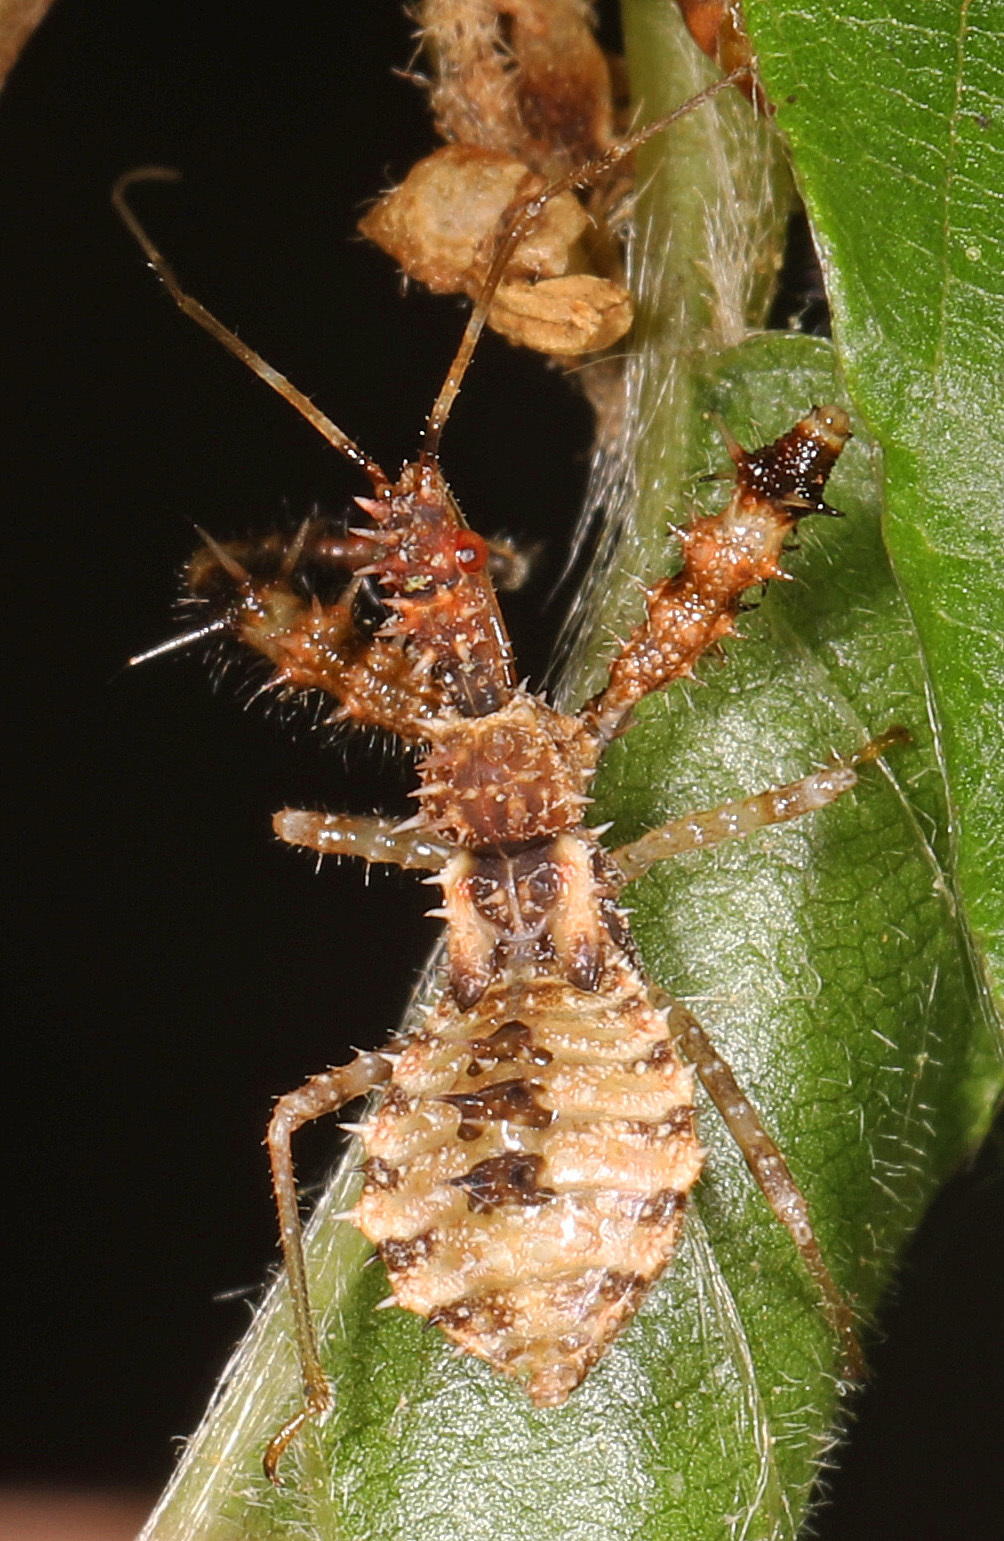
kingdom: Animalia
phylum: Arthropoda
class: Insecta
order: Hemiptera
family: Reduviidae
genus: Sinea
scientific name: Sinea
